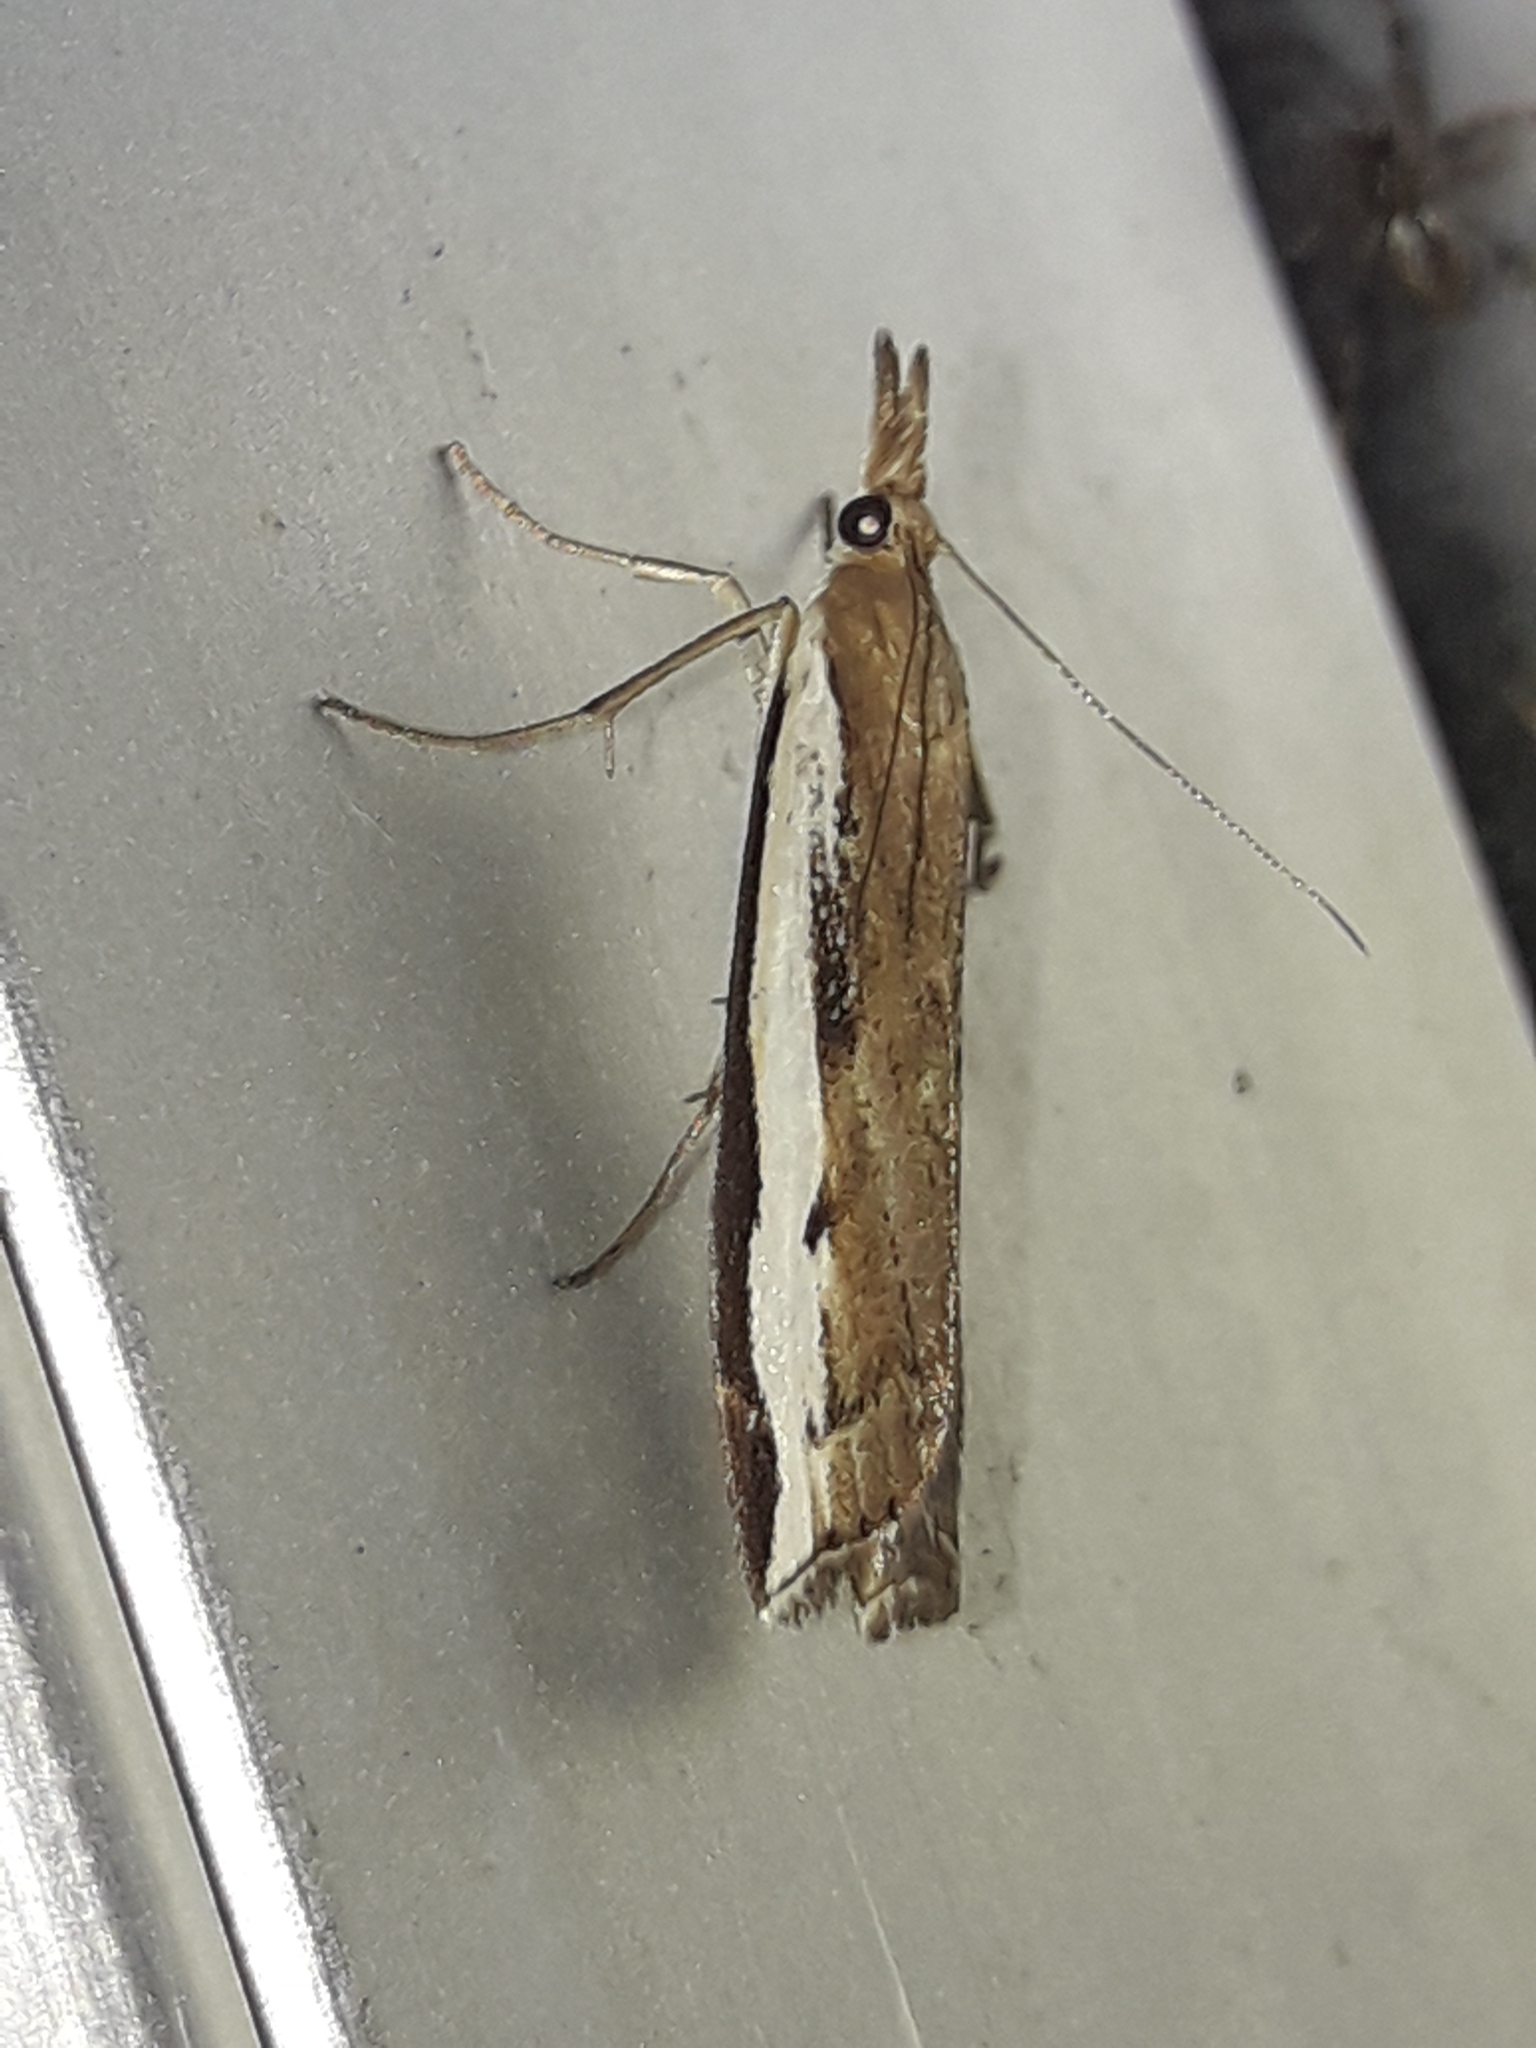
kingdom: Animalia
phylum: Arthropoda
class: Insecta
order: Lepidoptera
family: Crambidae
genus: Orocrambus
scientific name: Orocrambus flexuosellus
